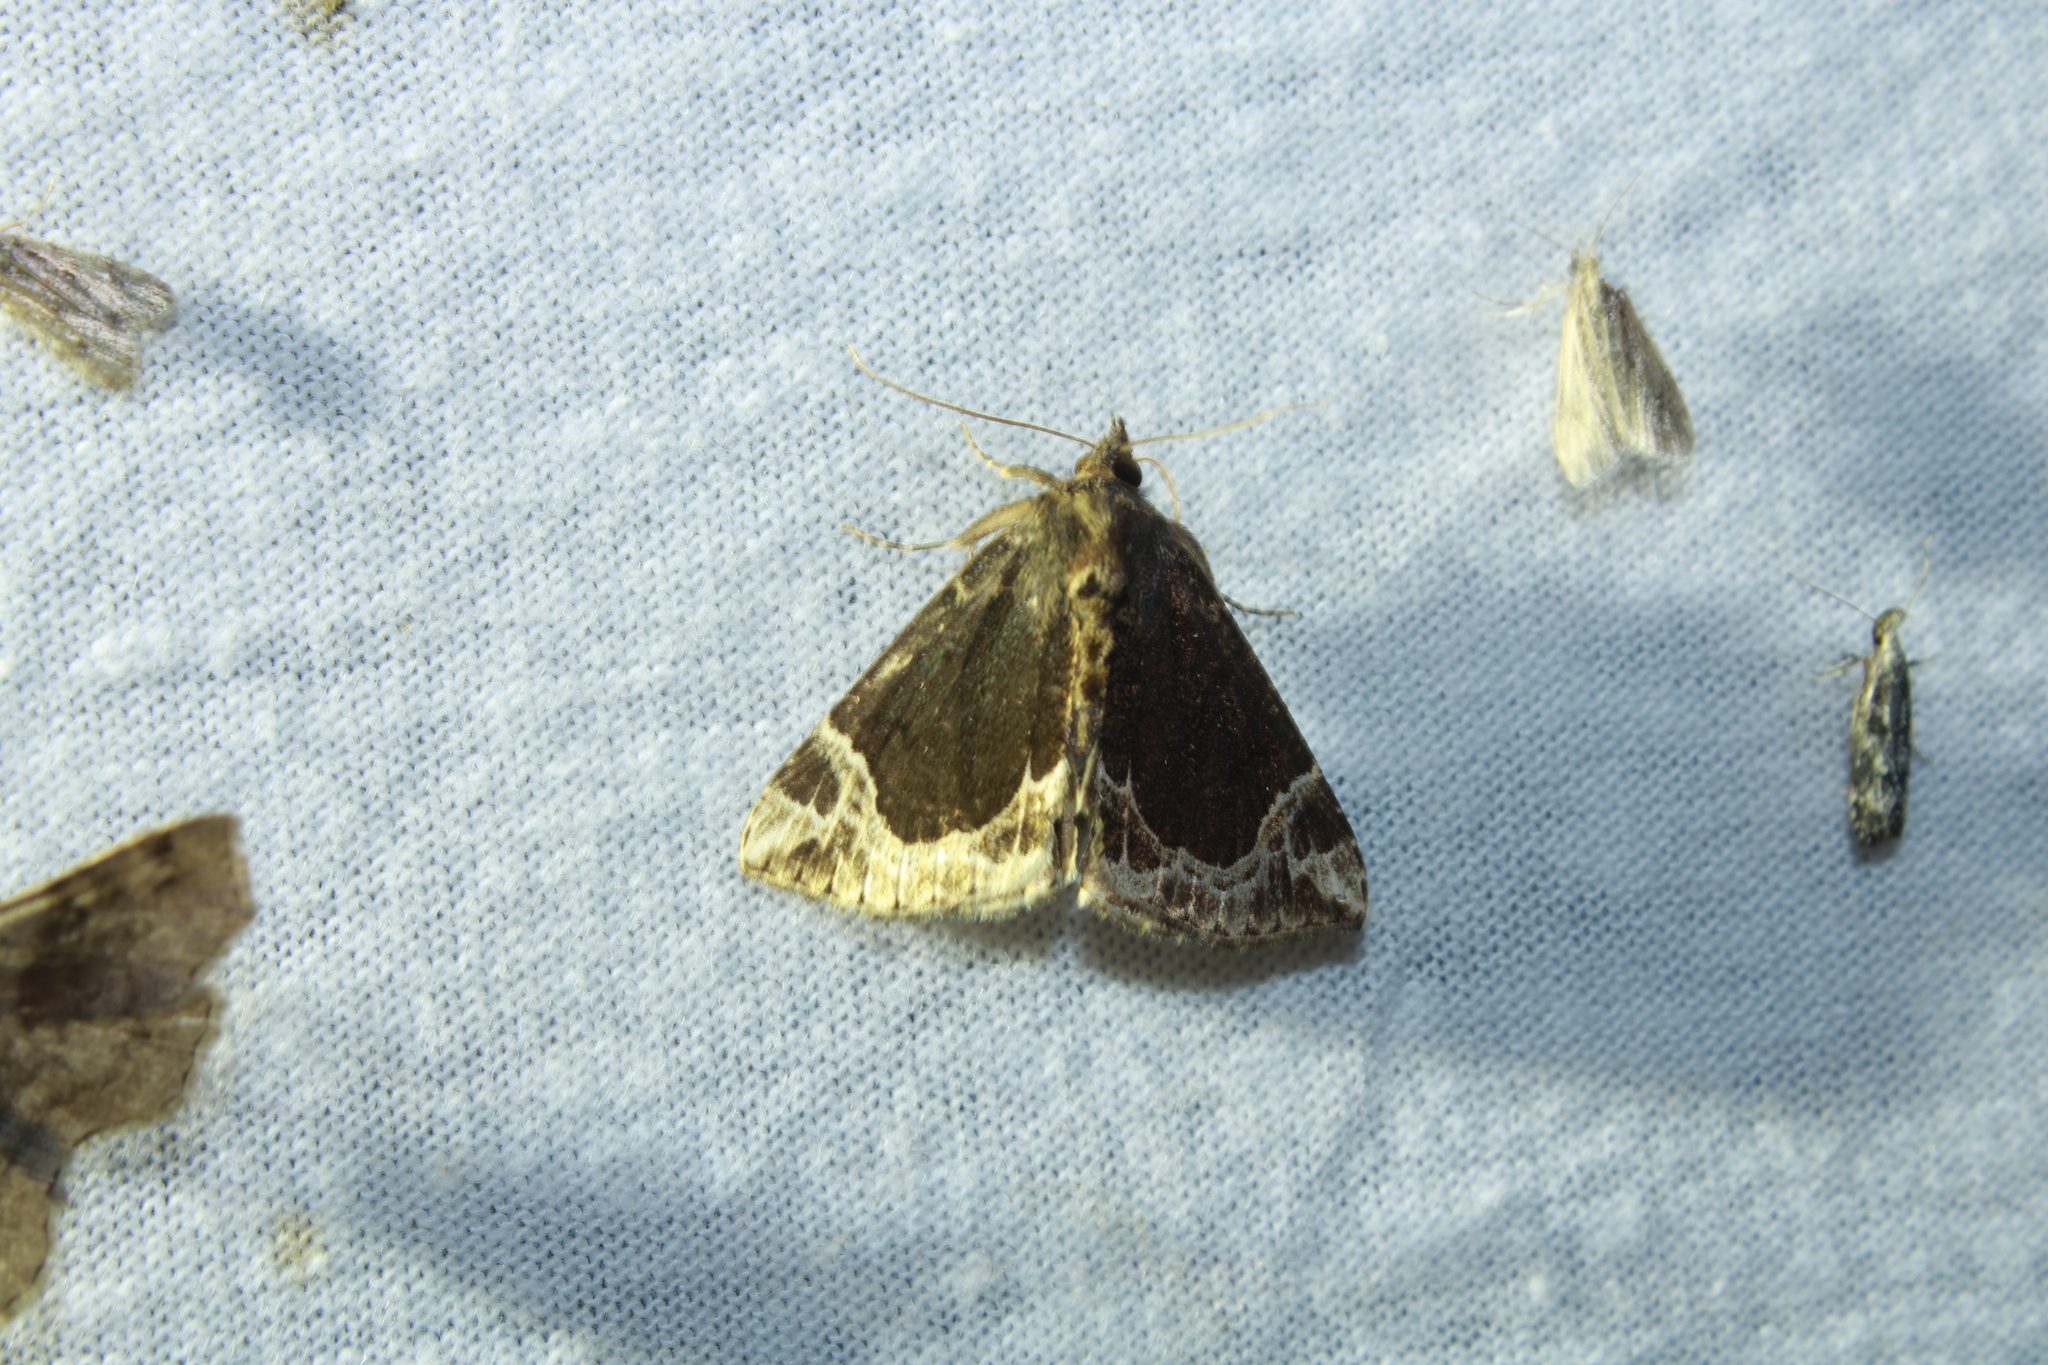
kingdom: Animalia
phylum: Arthropoda
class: Insecta
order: Lepidoptera
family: Erebidae
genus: Hypena
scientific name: Hypena abalienalis
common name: White-lined snout
